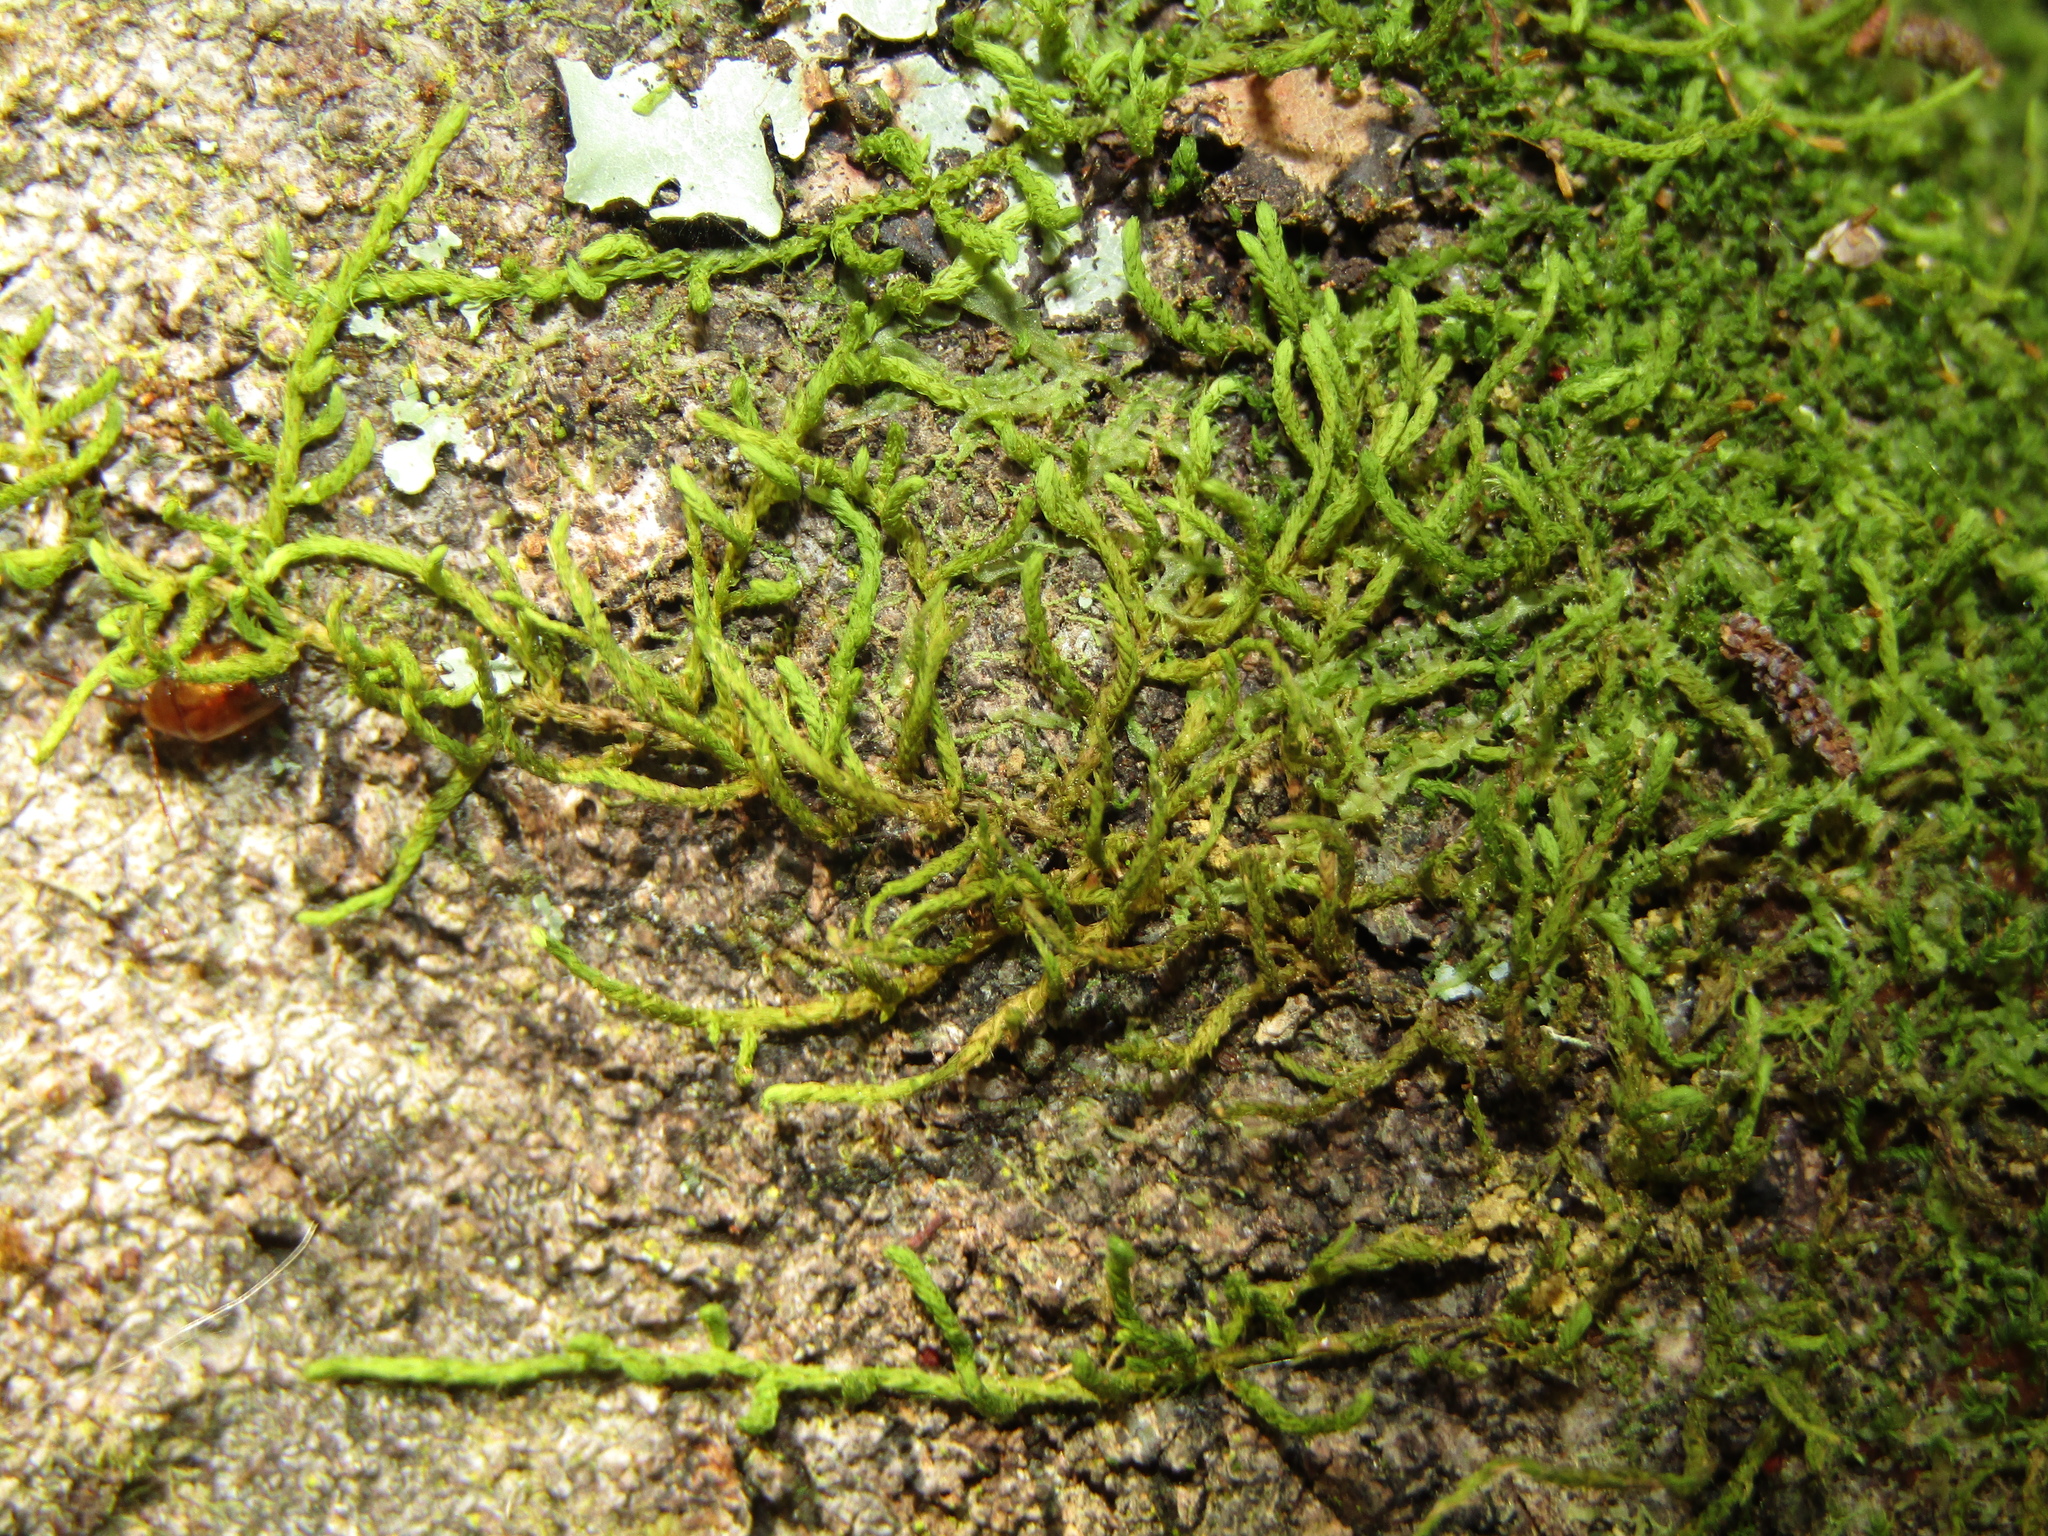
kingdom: Plantae
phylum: Bryophyta
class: Bryopsida
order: Hypnales
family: Meteoriaceae
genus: Papillaria
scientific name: Papillaria
